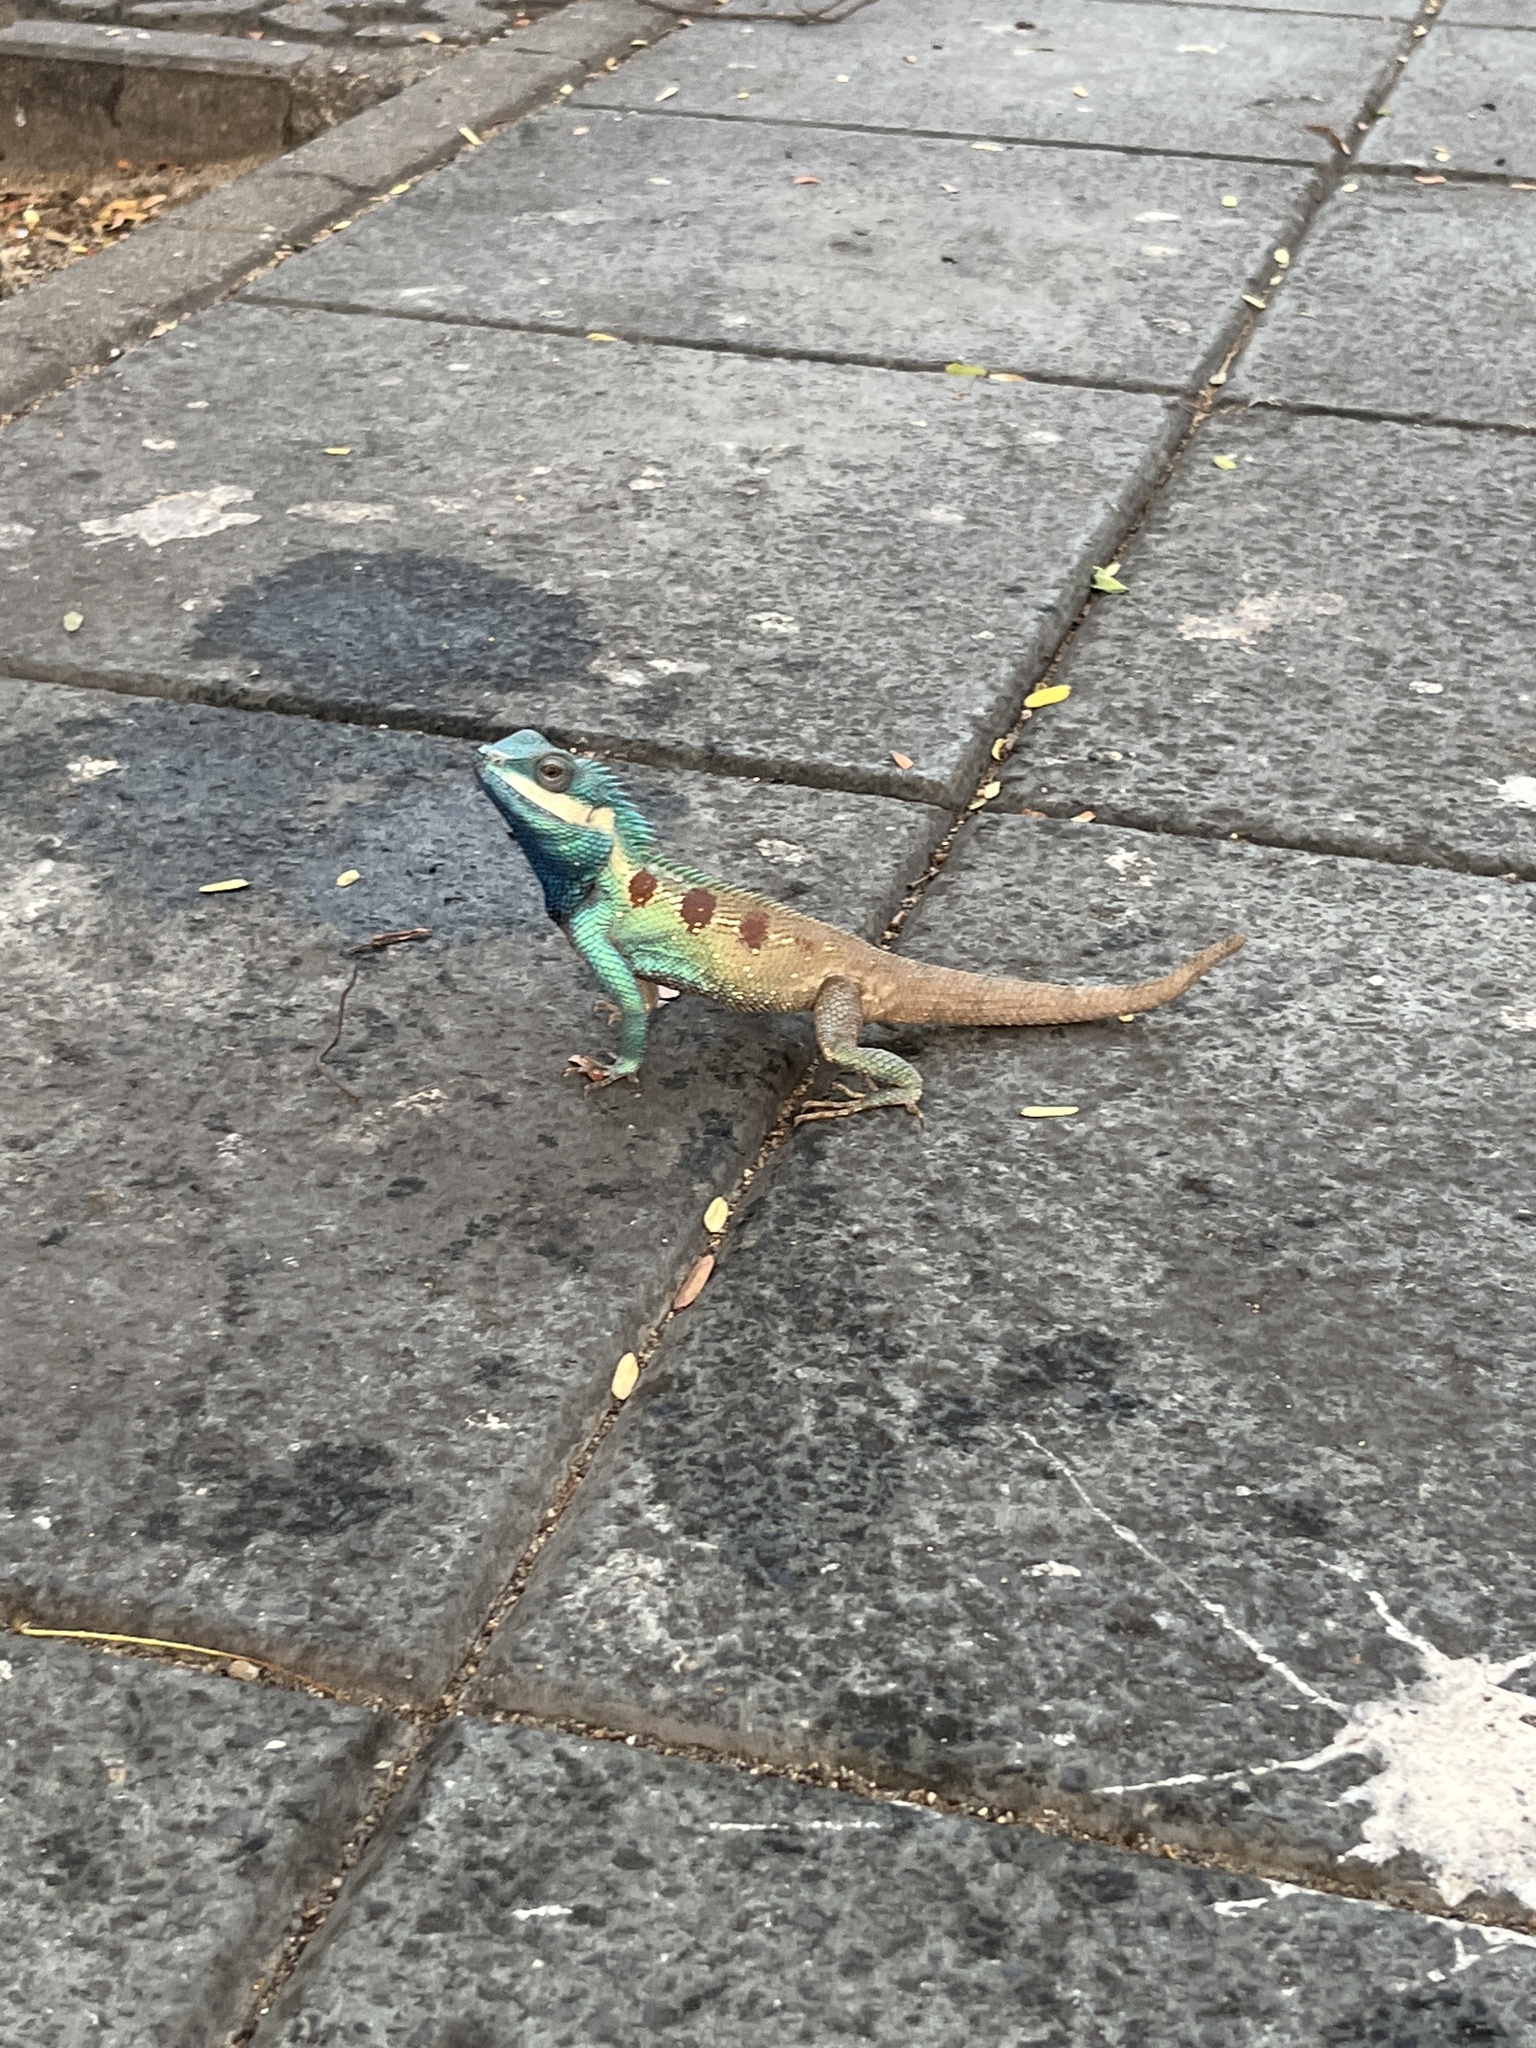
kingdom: Animalia
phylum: Chordata
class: Squamata
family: Agamidae
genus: Calotes
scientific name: Calotes goetzi
